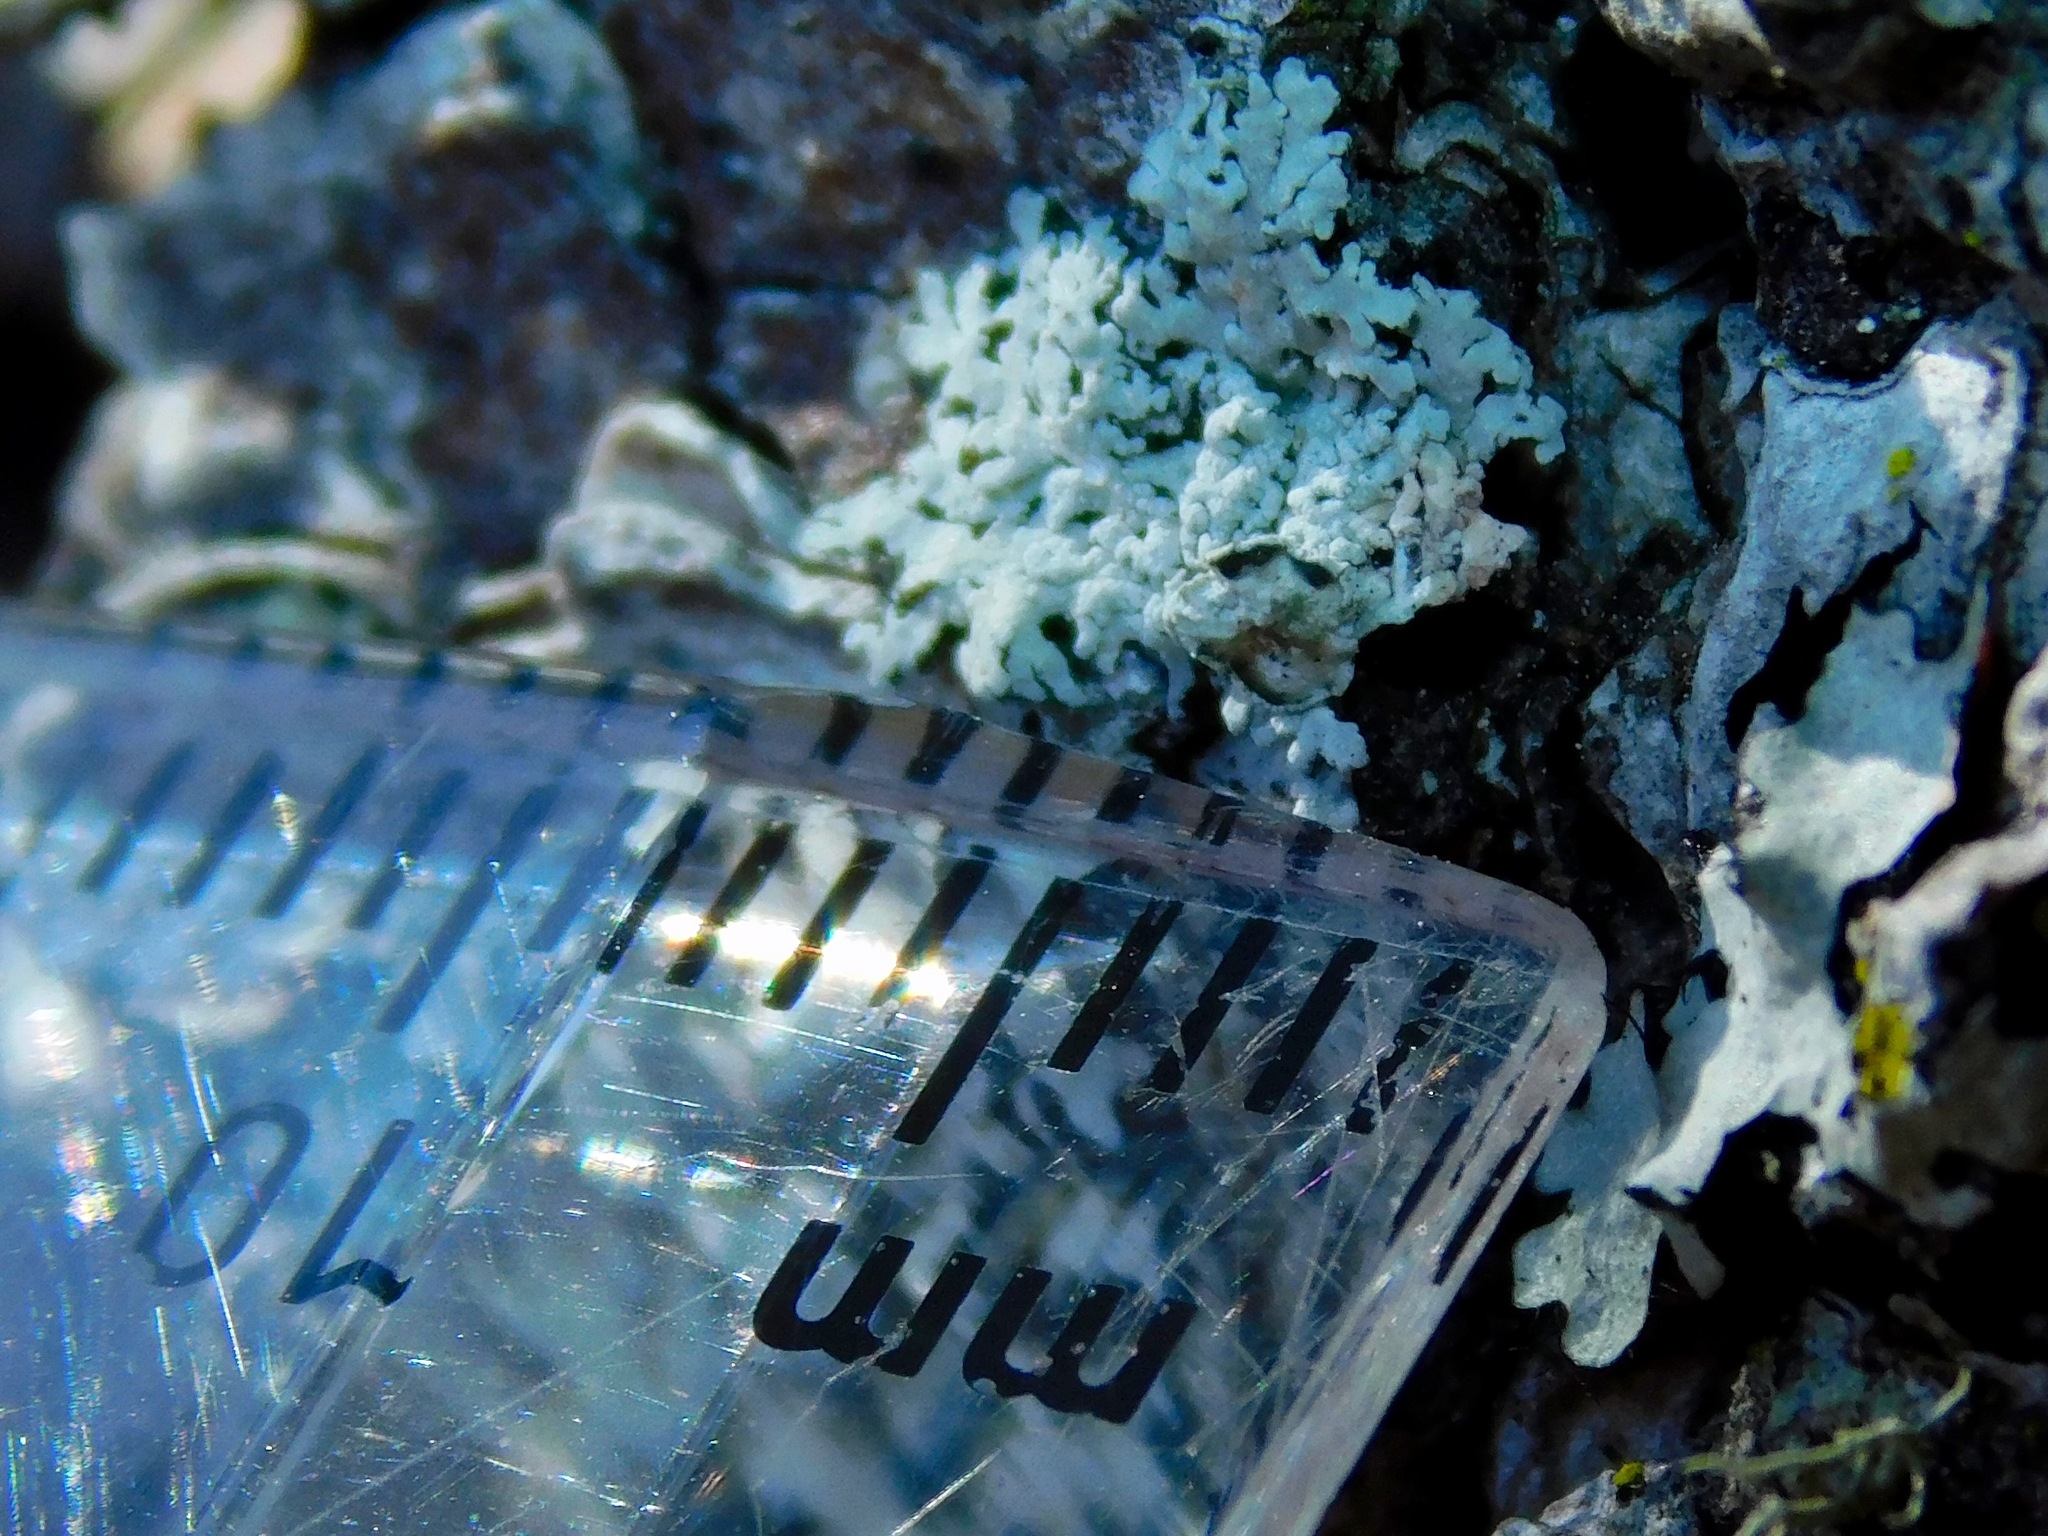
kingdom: Fungi
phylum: Ascomycota
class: Lecanoromycetes
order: Caliciales
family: Physciaceae
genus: Physconia
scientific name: Physconia subpallida
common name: Pale-belly frost lichen
